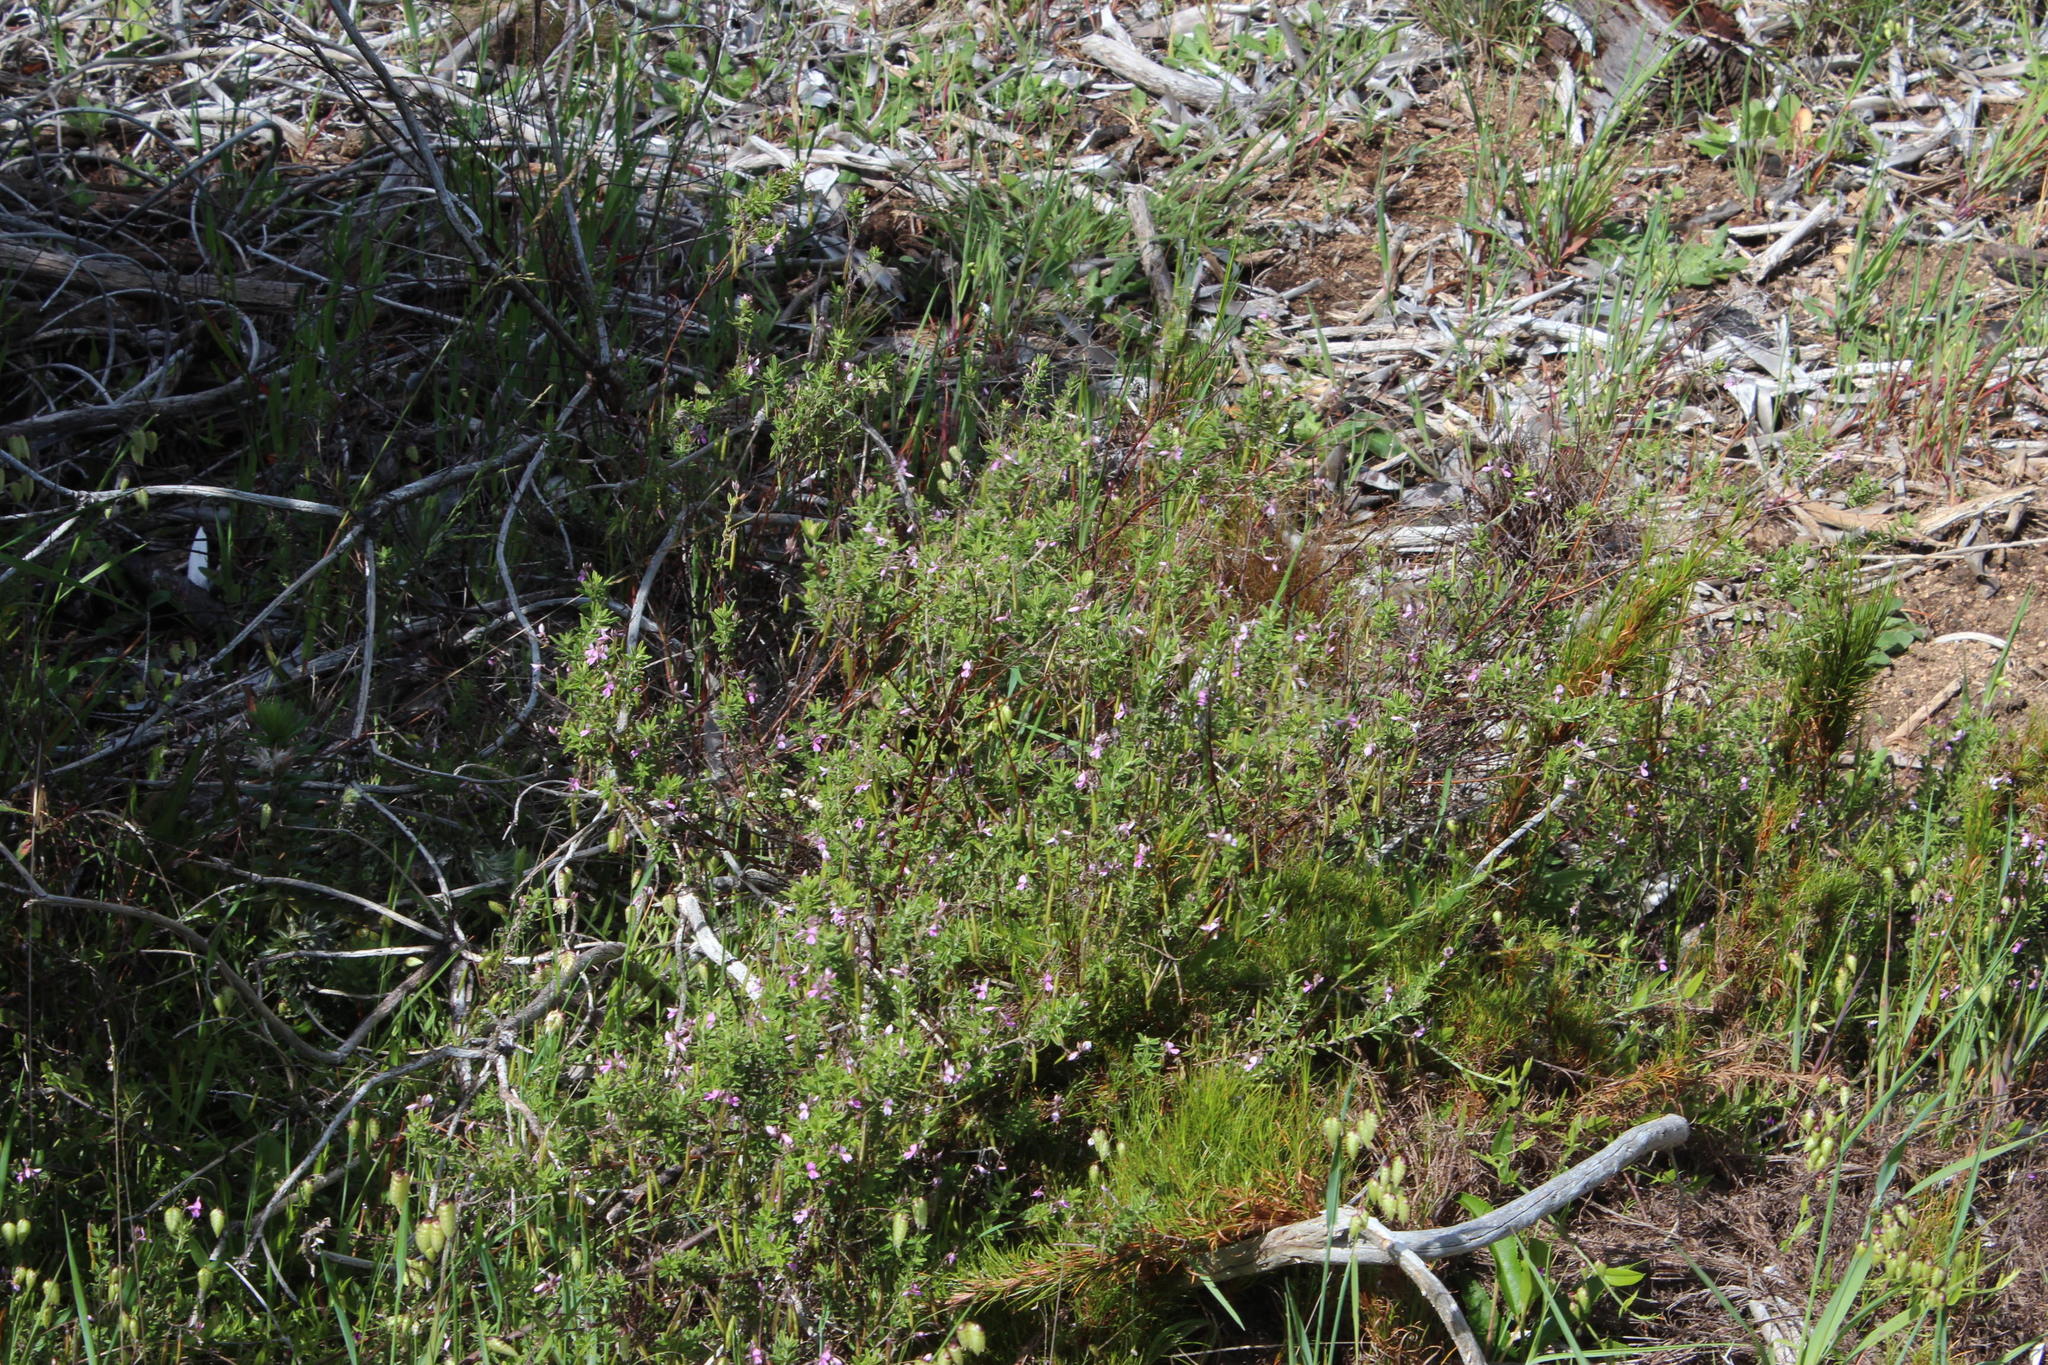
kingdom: Plantae
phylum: Tracheophyta
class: Magnoliopsida
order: Fabales
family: Fabaceae
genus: Indigofera
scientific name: Indigofera filiformis
